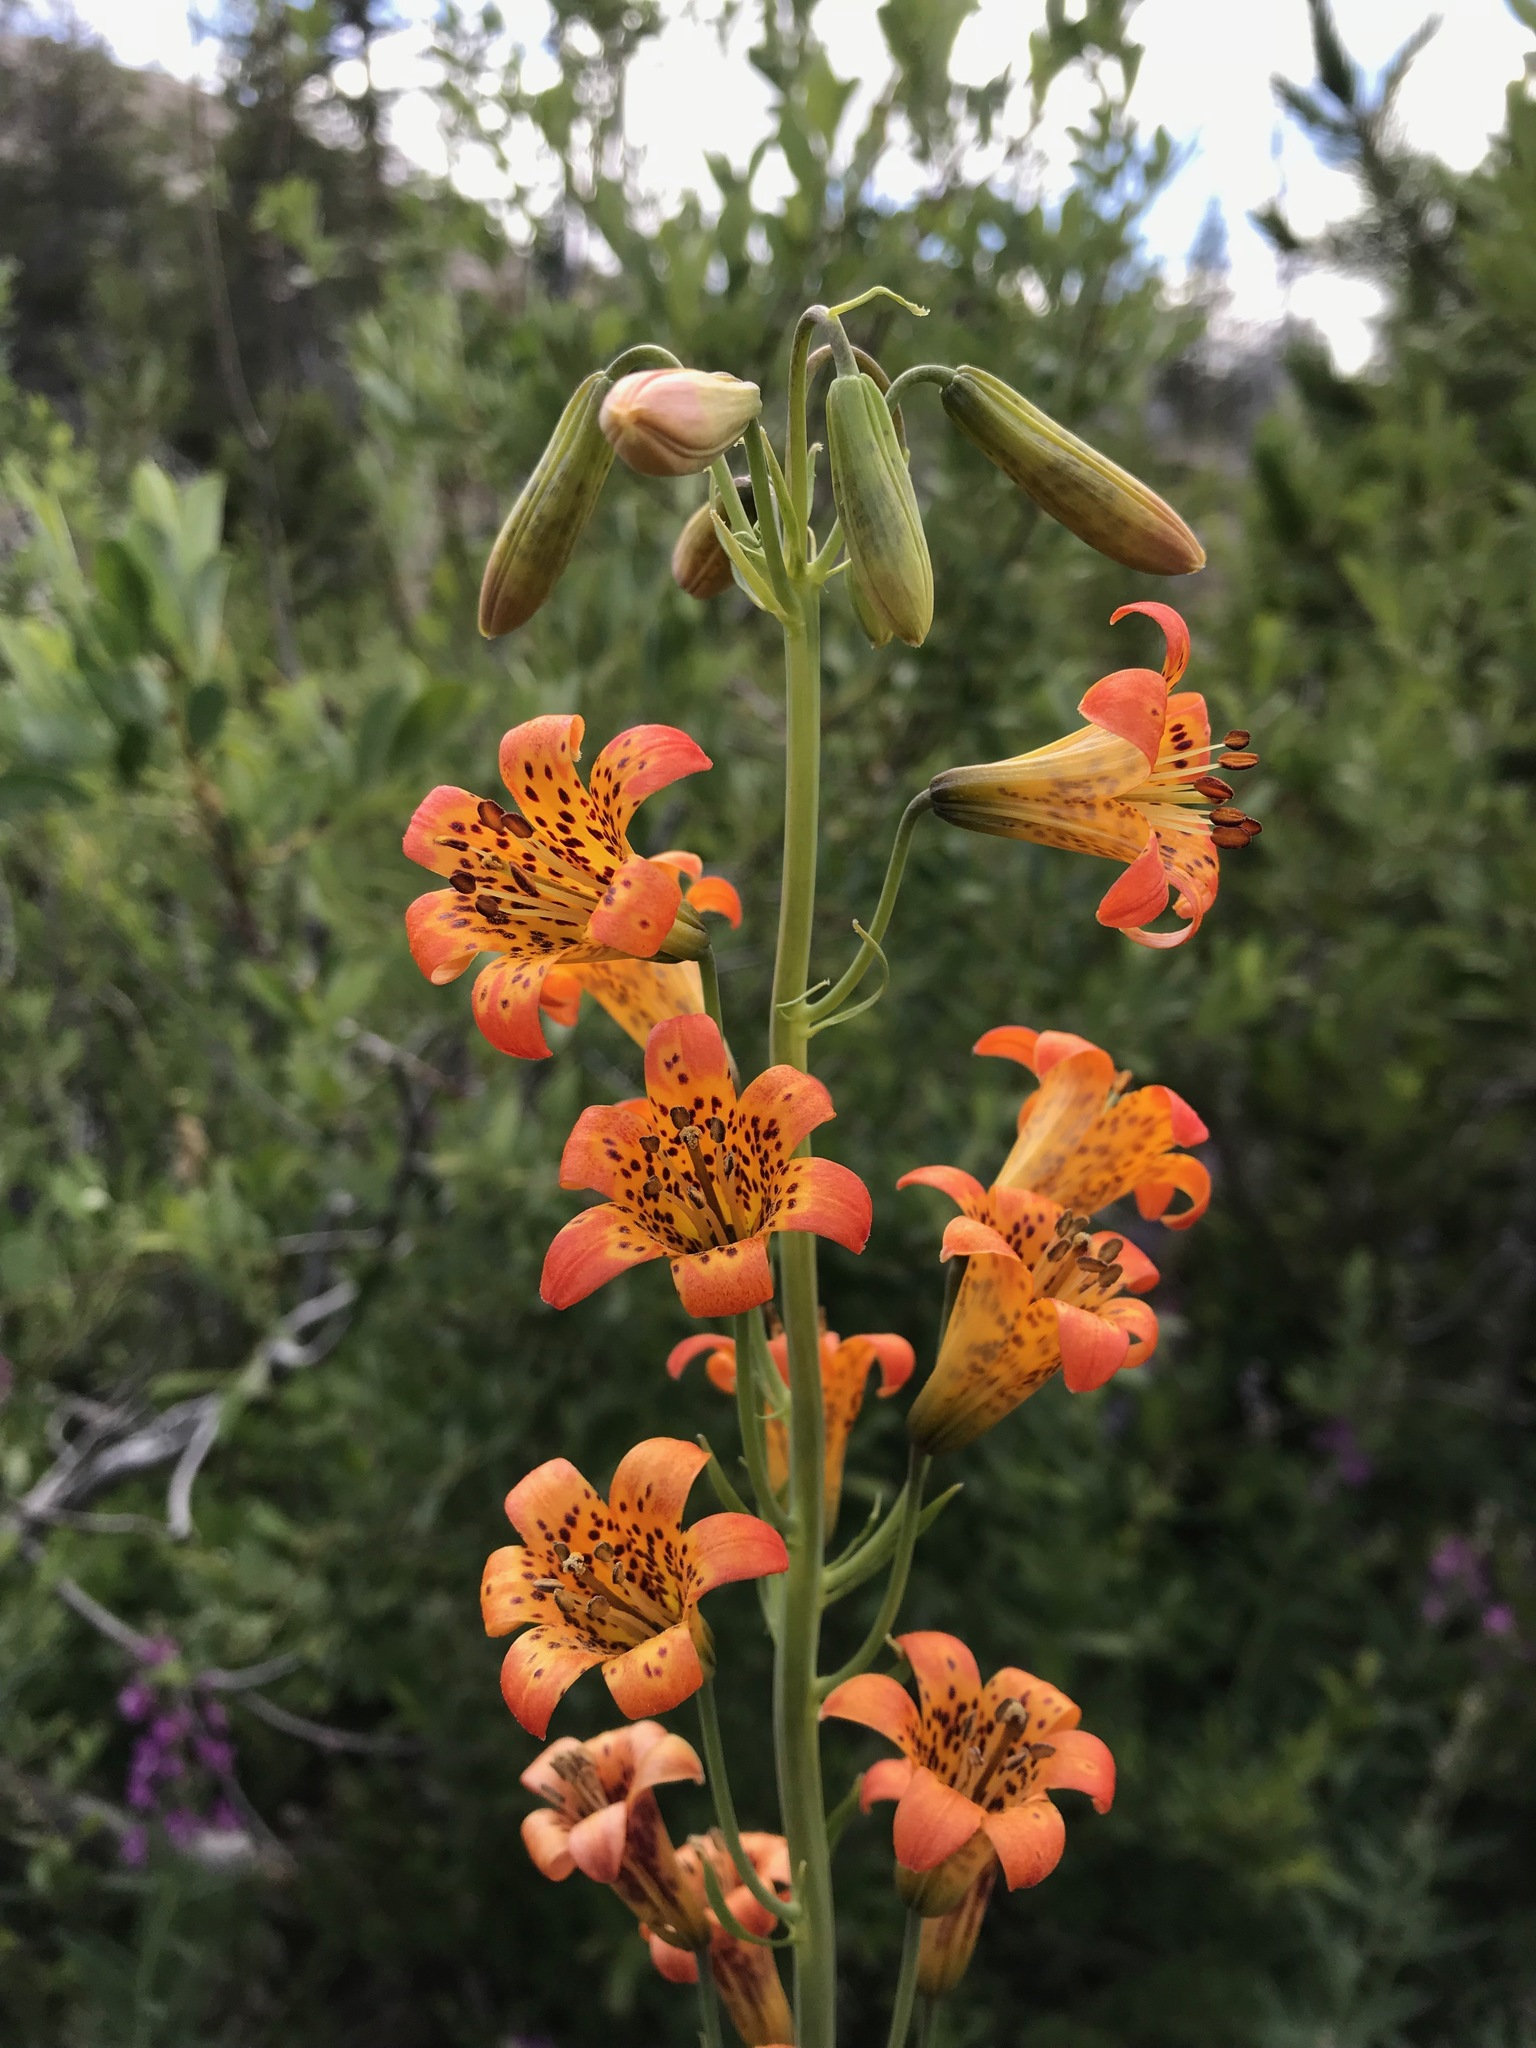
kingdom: Plantae
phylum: Tracheophyta
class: Liliopsida
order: Liliales
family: Liliaceae
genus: Lilium
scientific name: Lilium parvum
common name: Alpine lily
